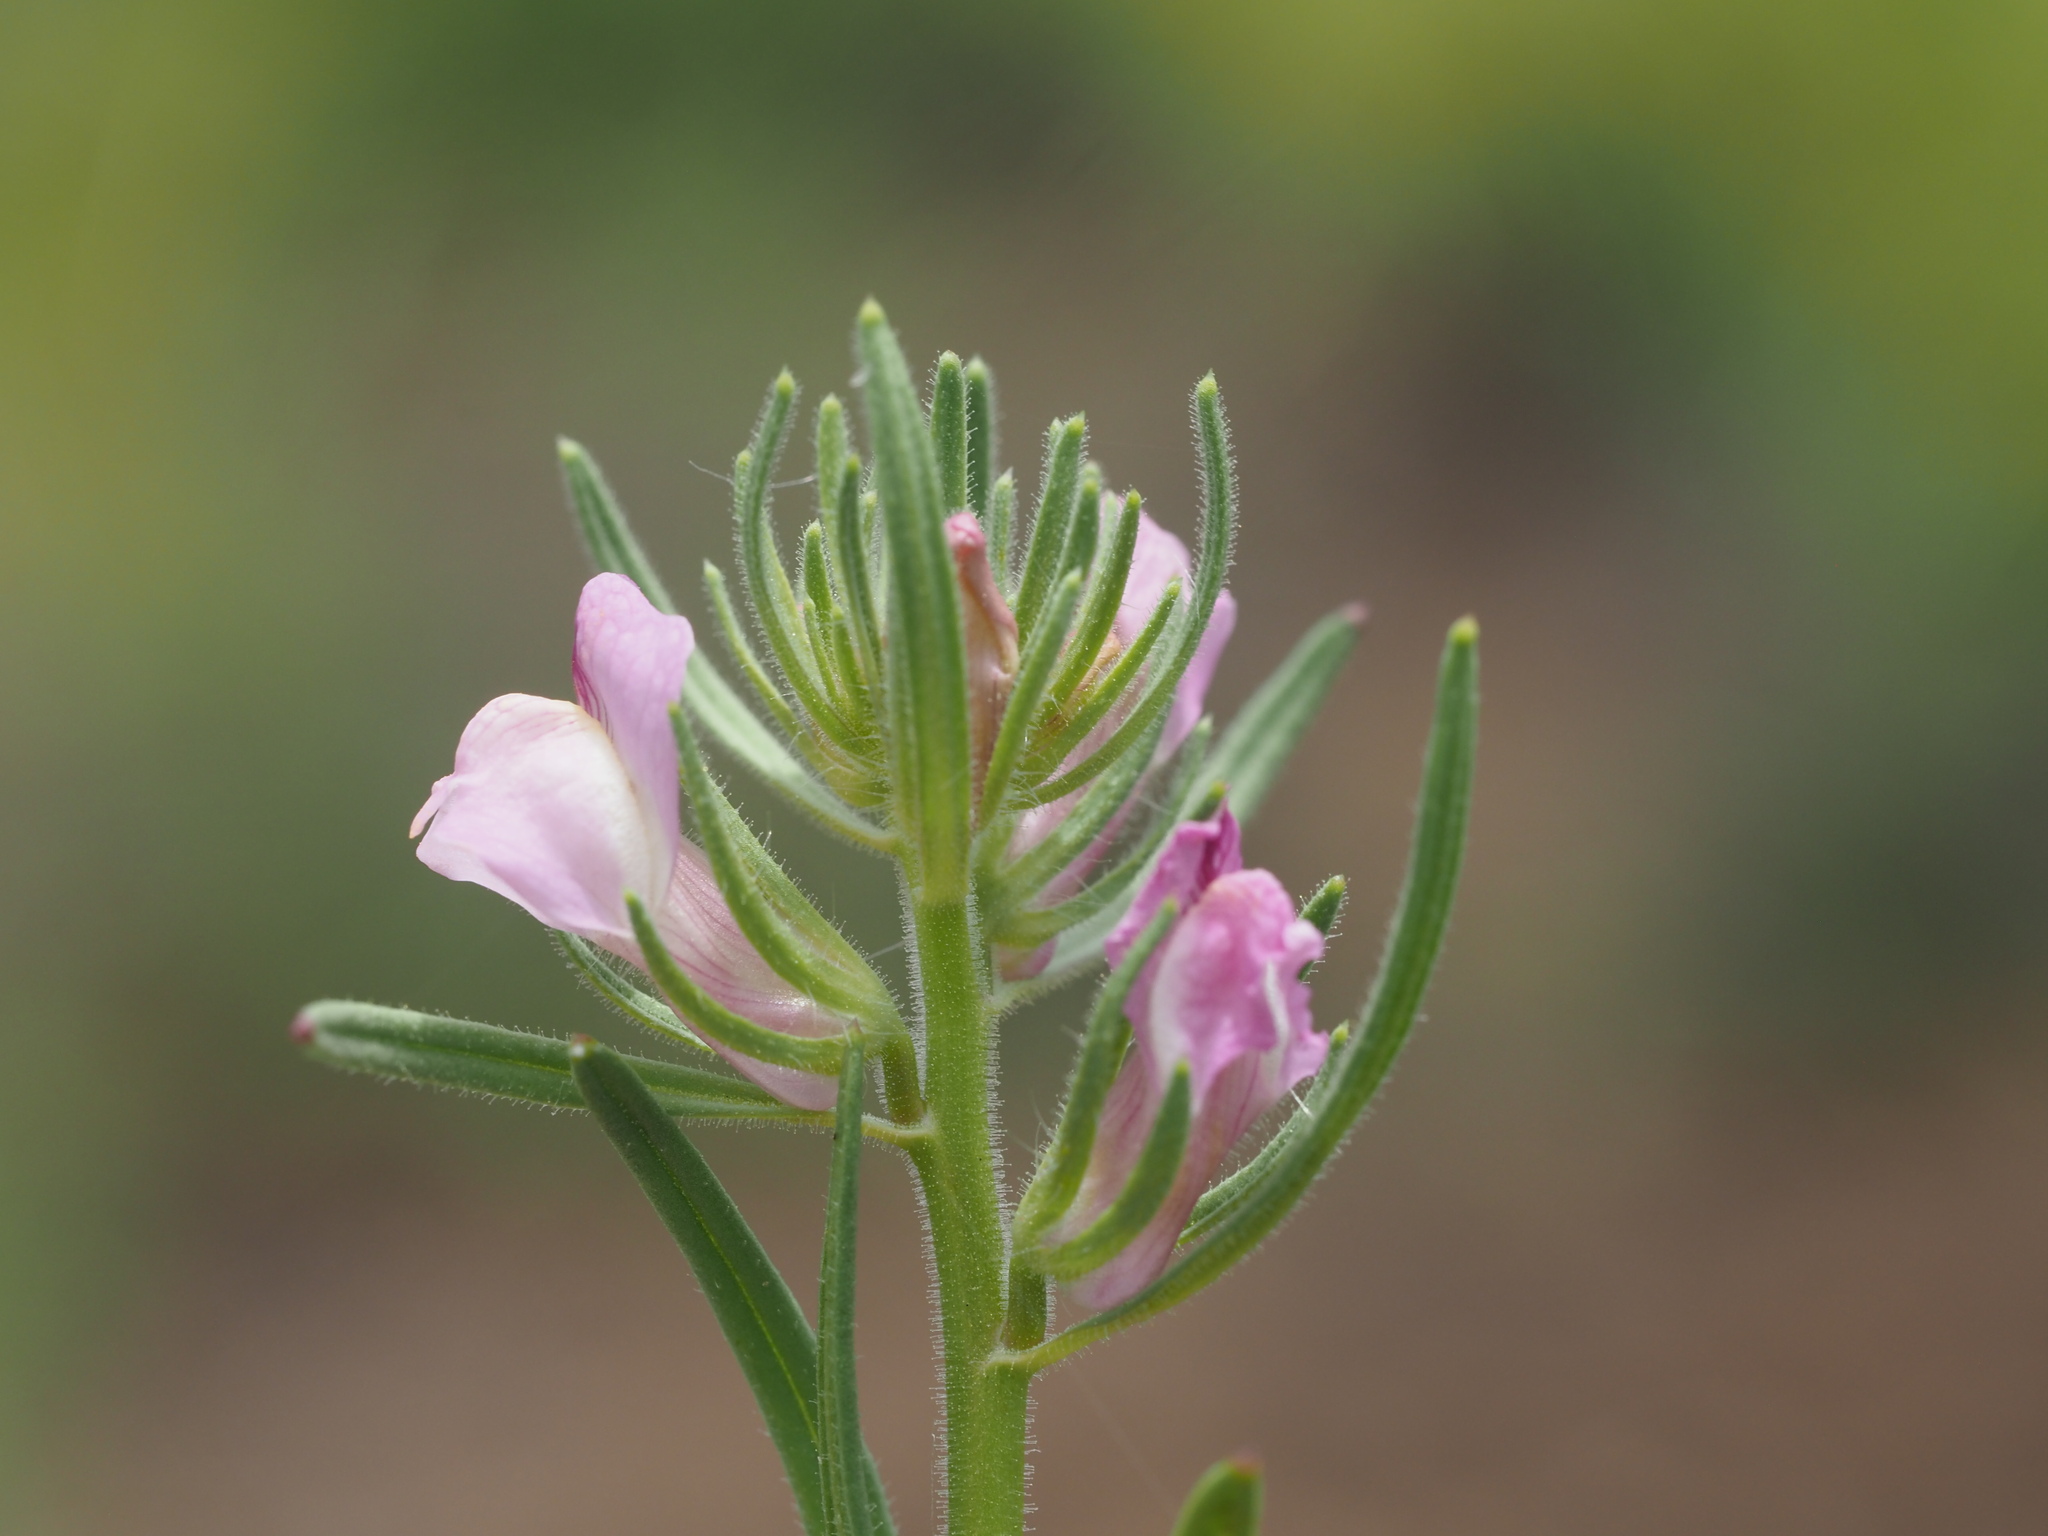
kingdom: Plantae
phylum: Tracheophyta
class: Magnoliopsida
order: Lamiales
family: Plantaginaceae
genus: Misopates
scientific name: Misopates orontium
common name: Weasel's-snout
